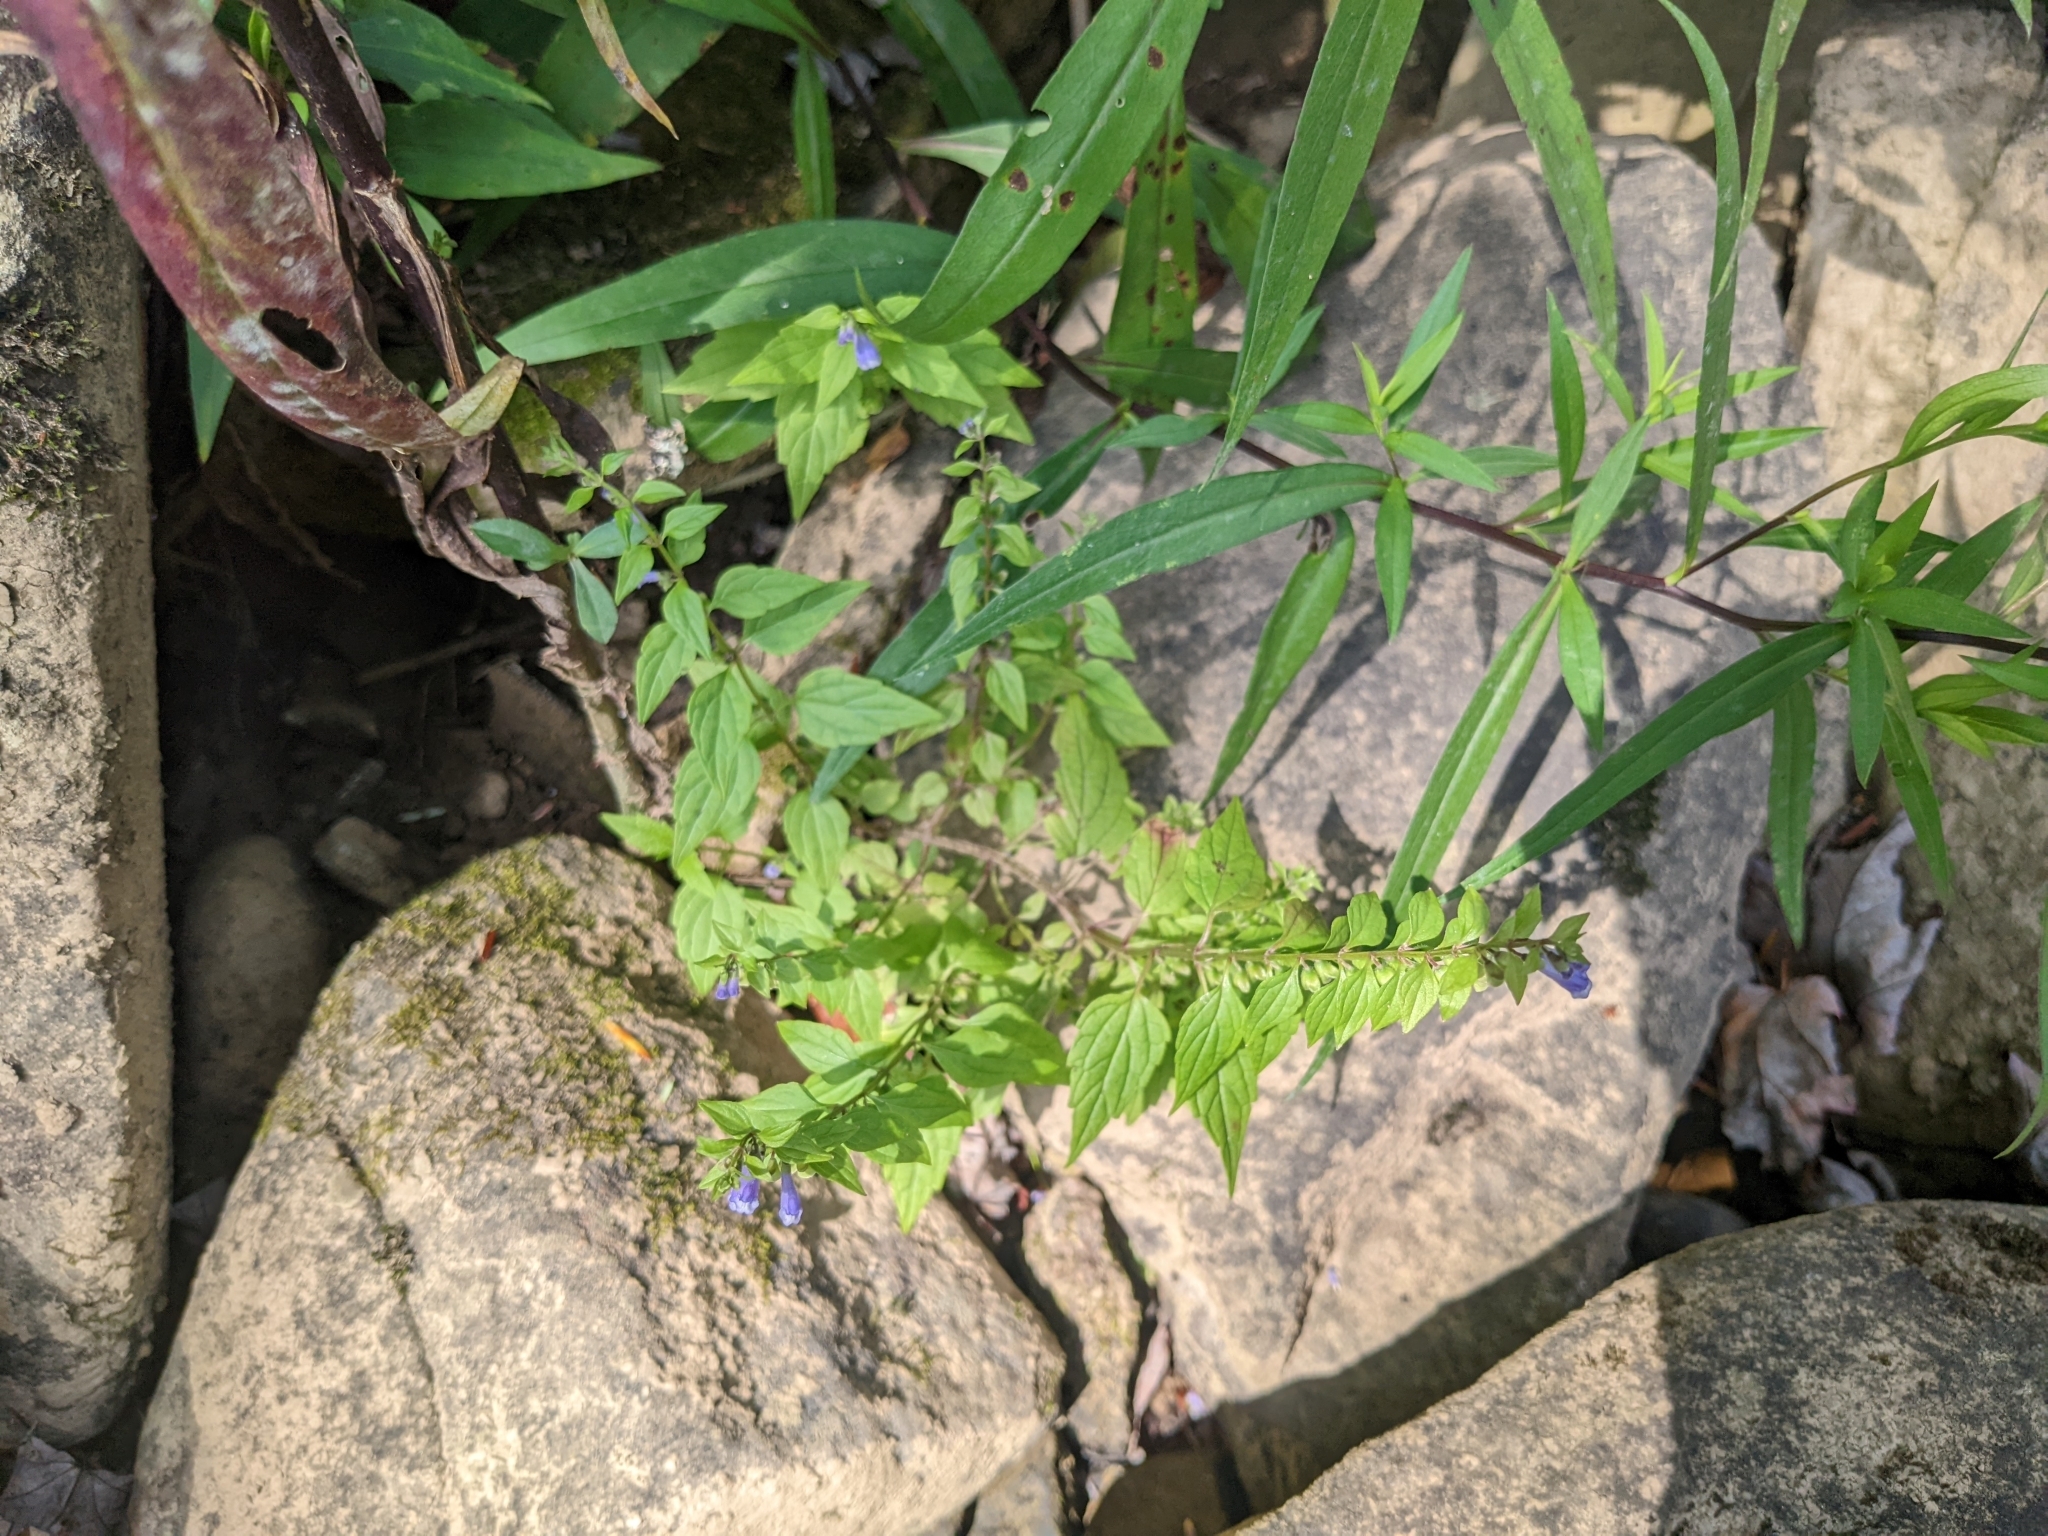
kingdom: Plantae
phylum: Tracheophyta
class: Magnoliopsida
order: Lamiales
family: Lamiaceae
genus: Scutellaria
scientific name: Scutellaria lateriflora
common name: Blue skullcap
